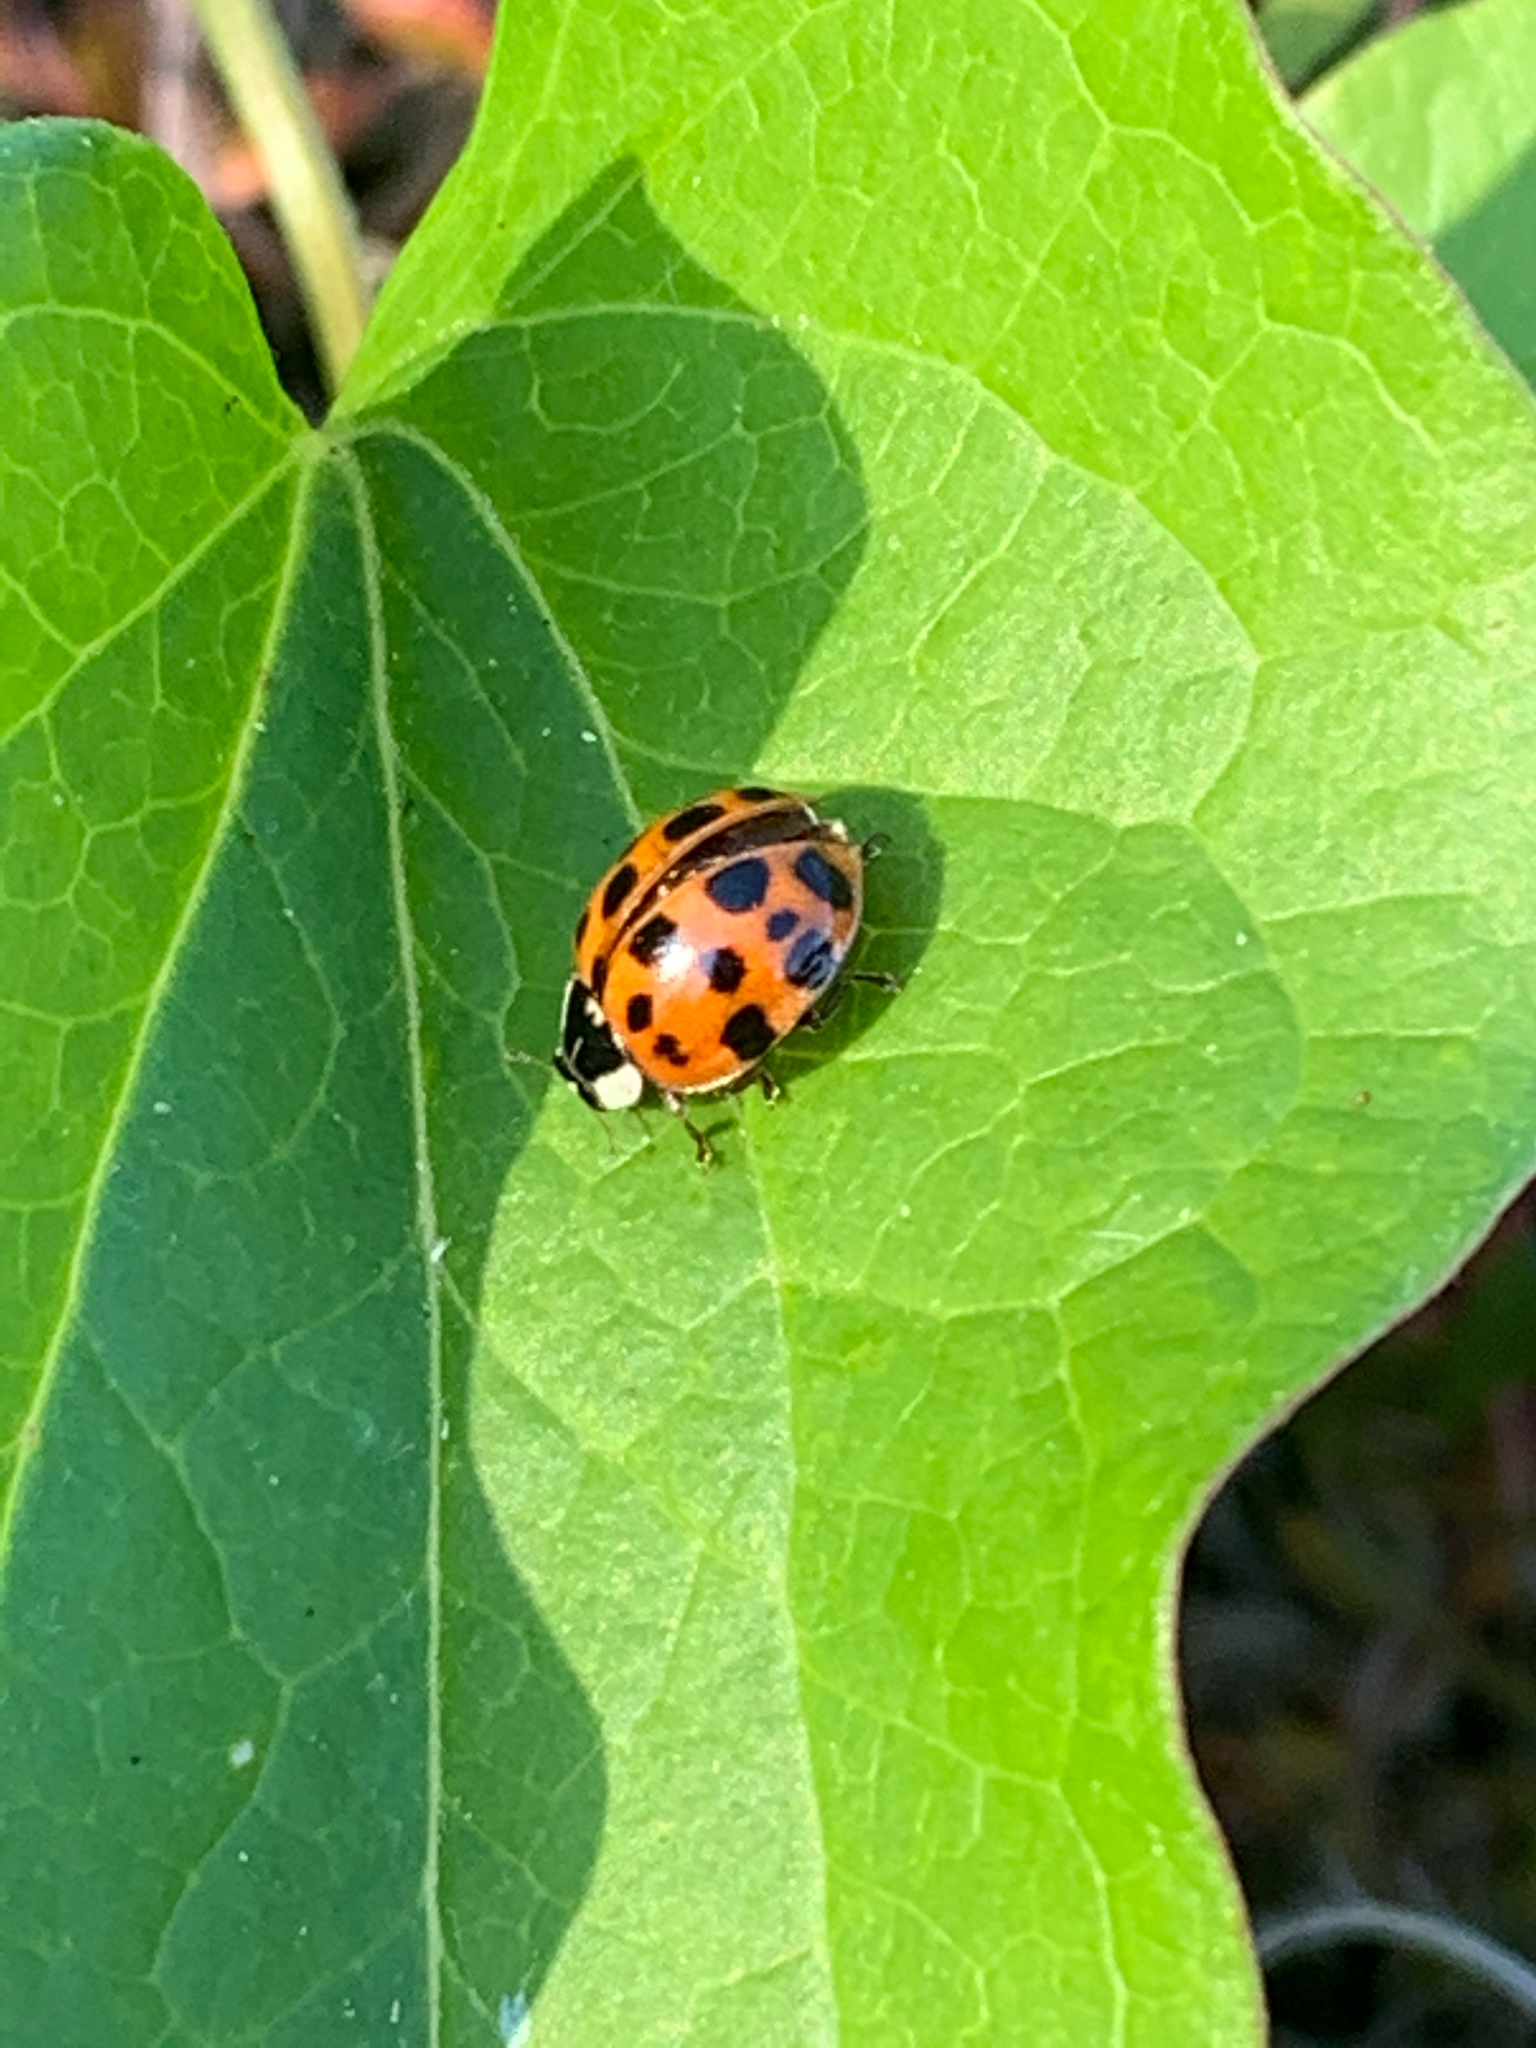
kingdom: Animalia
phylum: Arthropoda
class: Insecta
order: Coleoptera
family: Coccinellidae
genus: Harmonia
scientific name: Harmonia axyridis
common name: Harlequin ladybird
